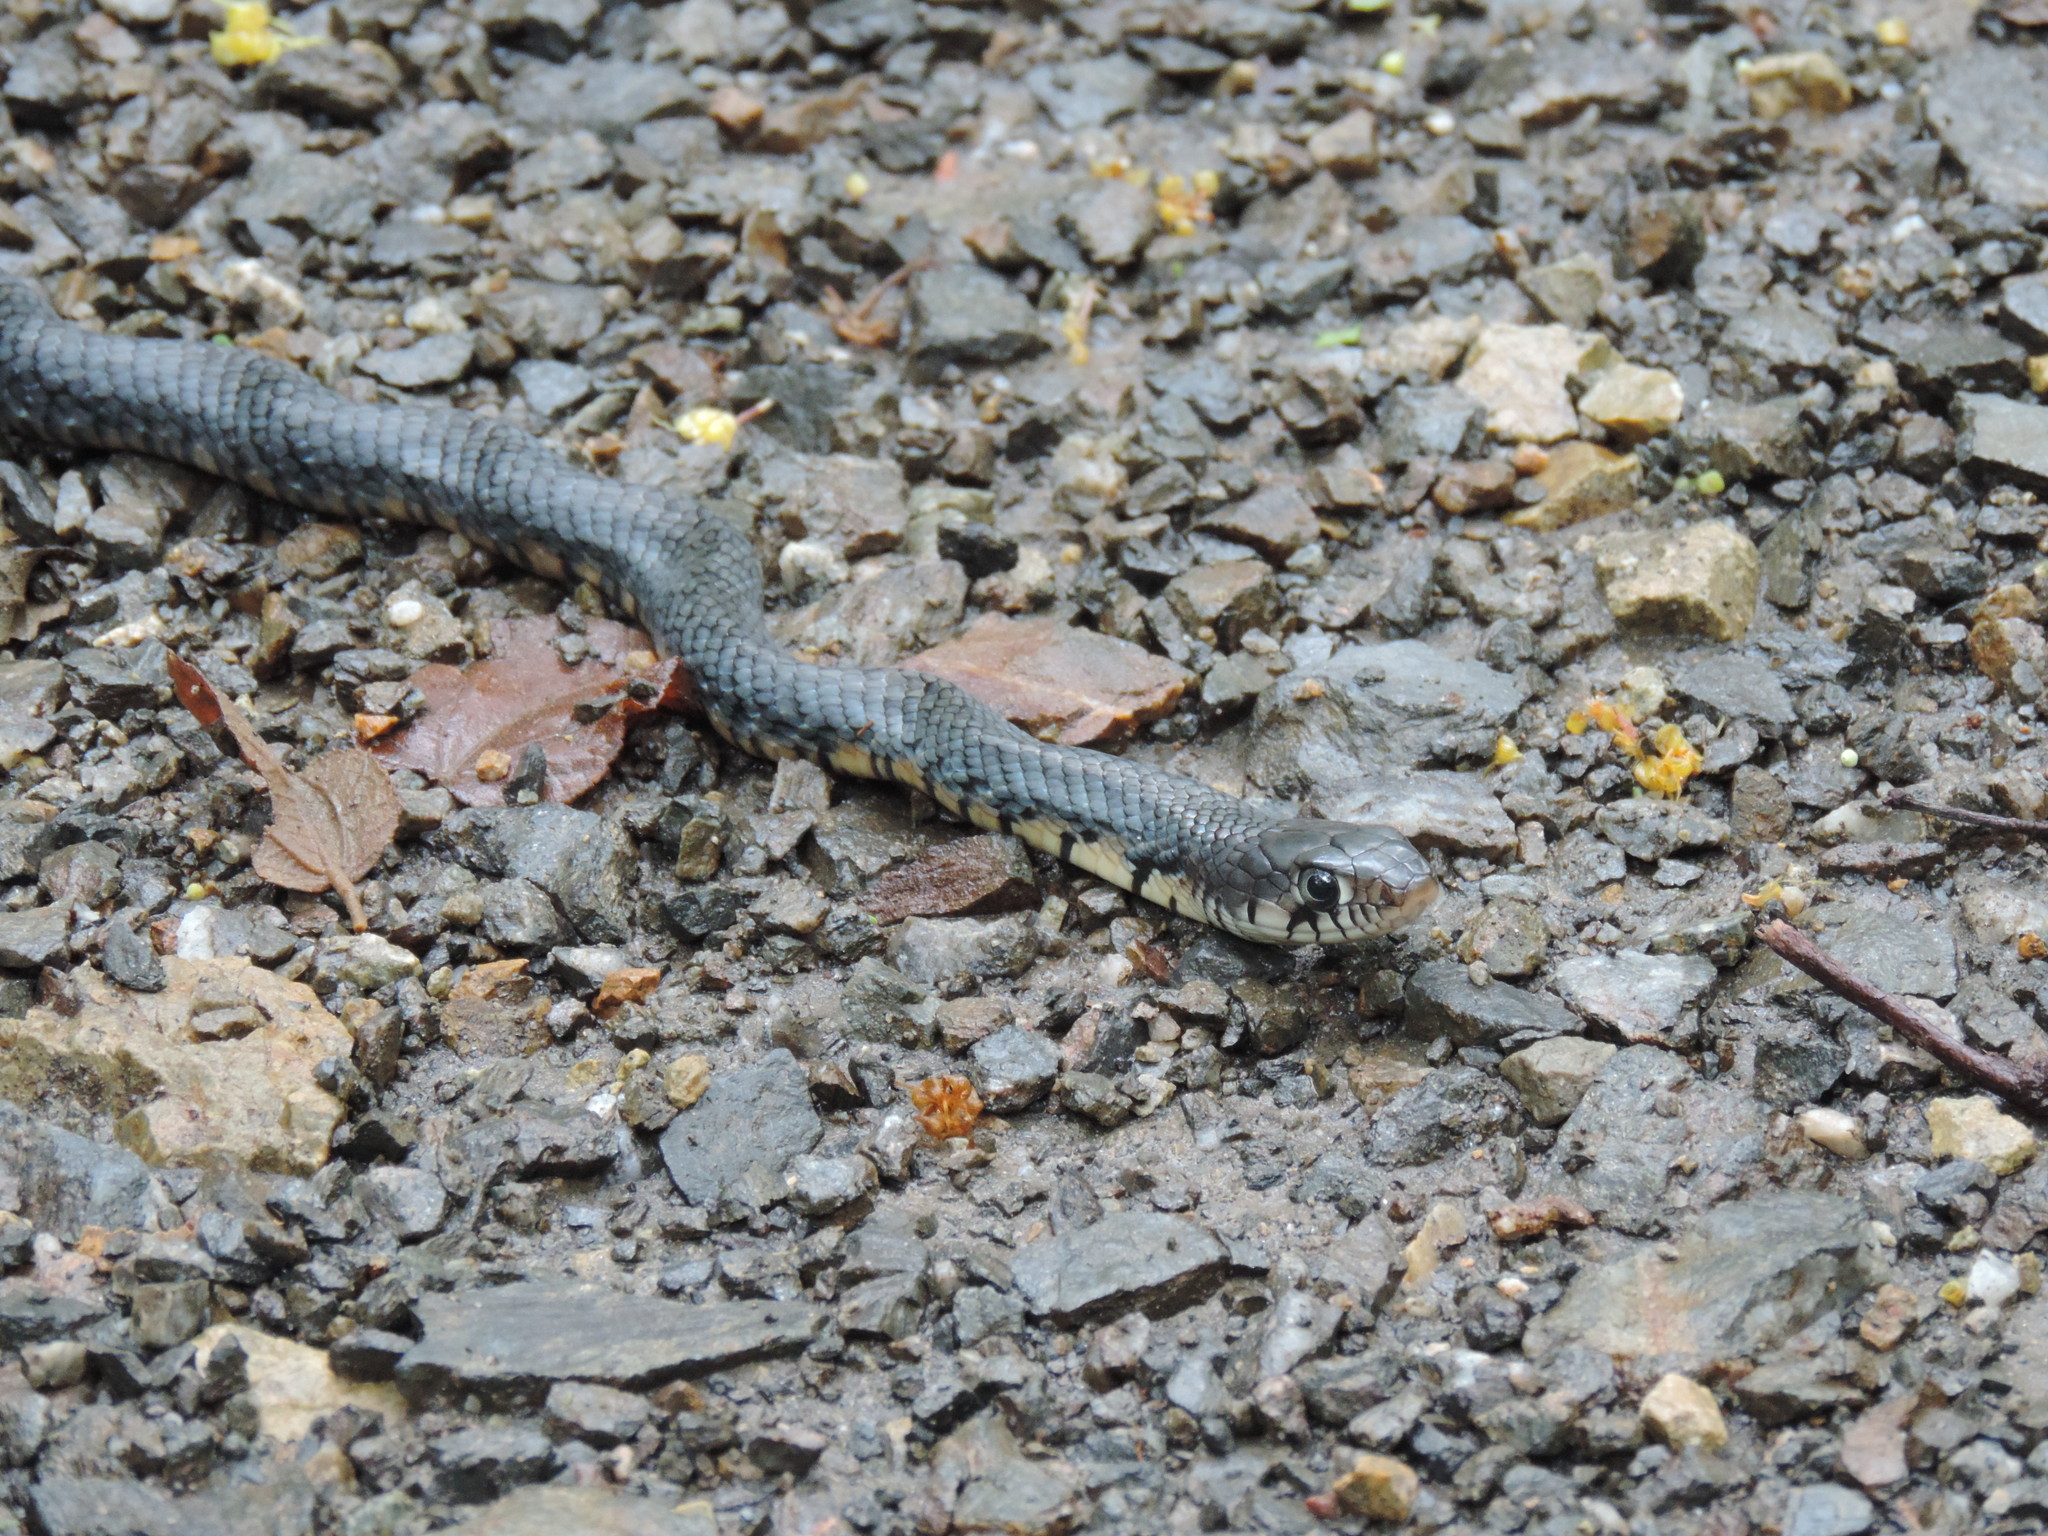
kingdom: Animalia
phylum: Chordata
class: Squamata
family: Colubridae
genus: Drymarchon
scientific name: Drymarchon melanurus
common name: Central american indigo snake
